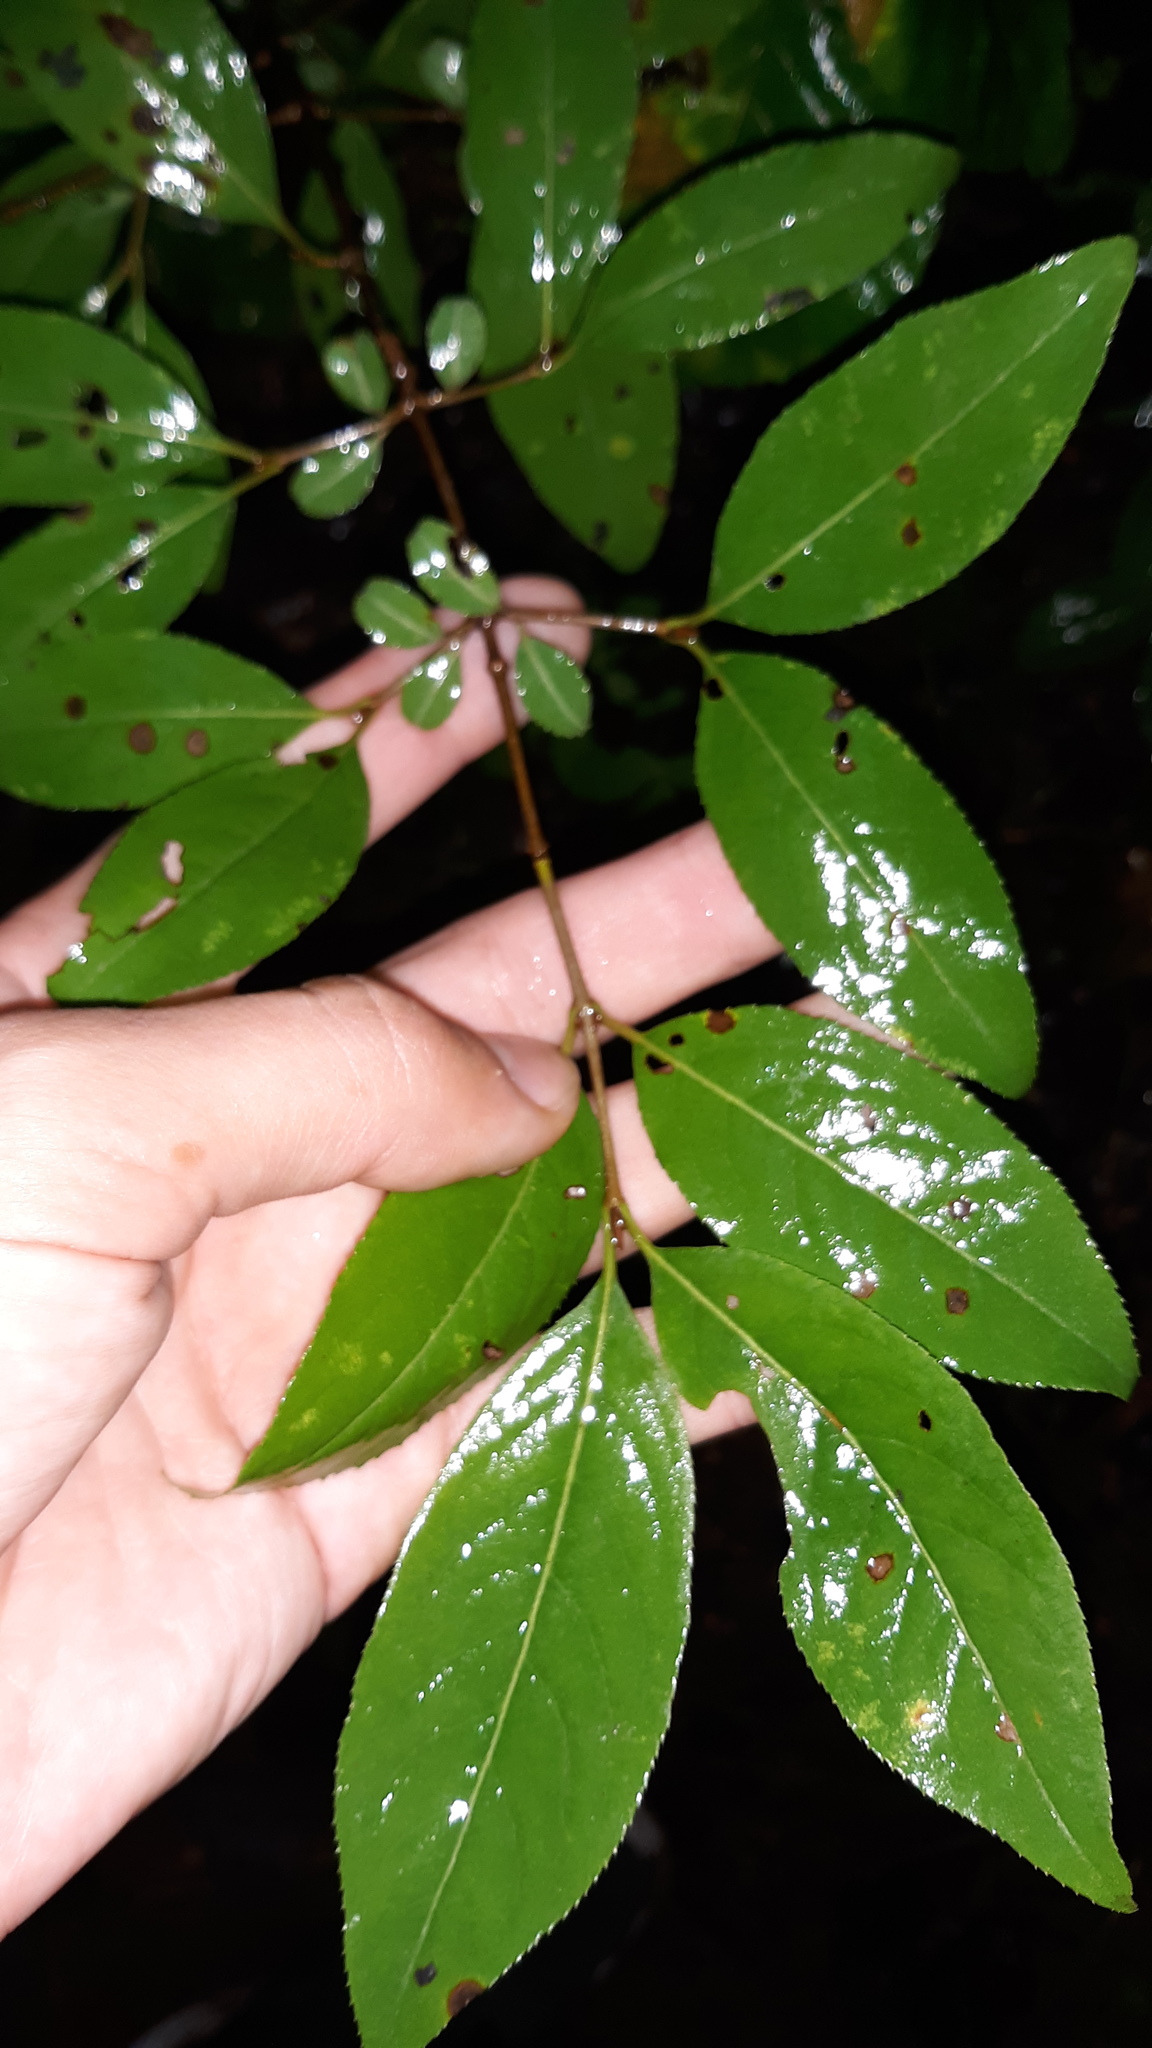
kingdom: Plantae
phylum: Tracheophyta
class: Magnoliopsida
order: Dipsacales
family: Viburnaceae
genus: Viburnum
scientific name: Viburnum prunifolium
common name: Black haw
